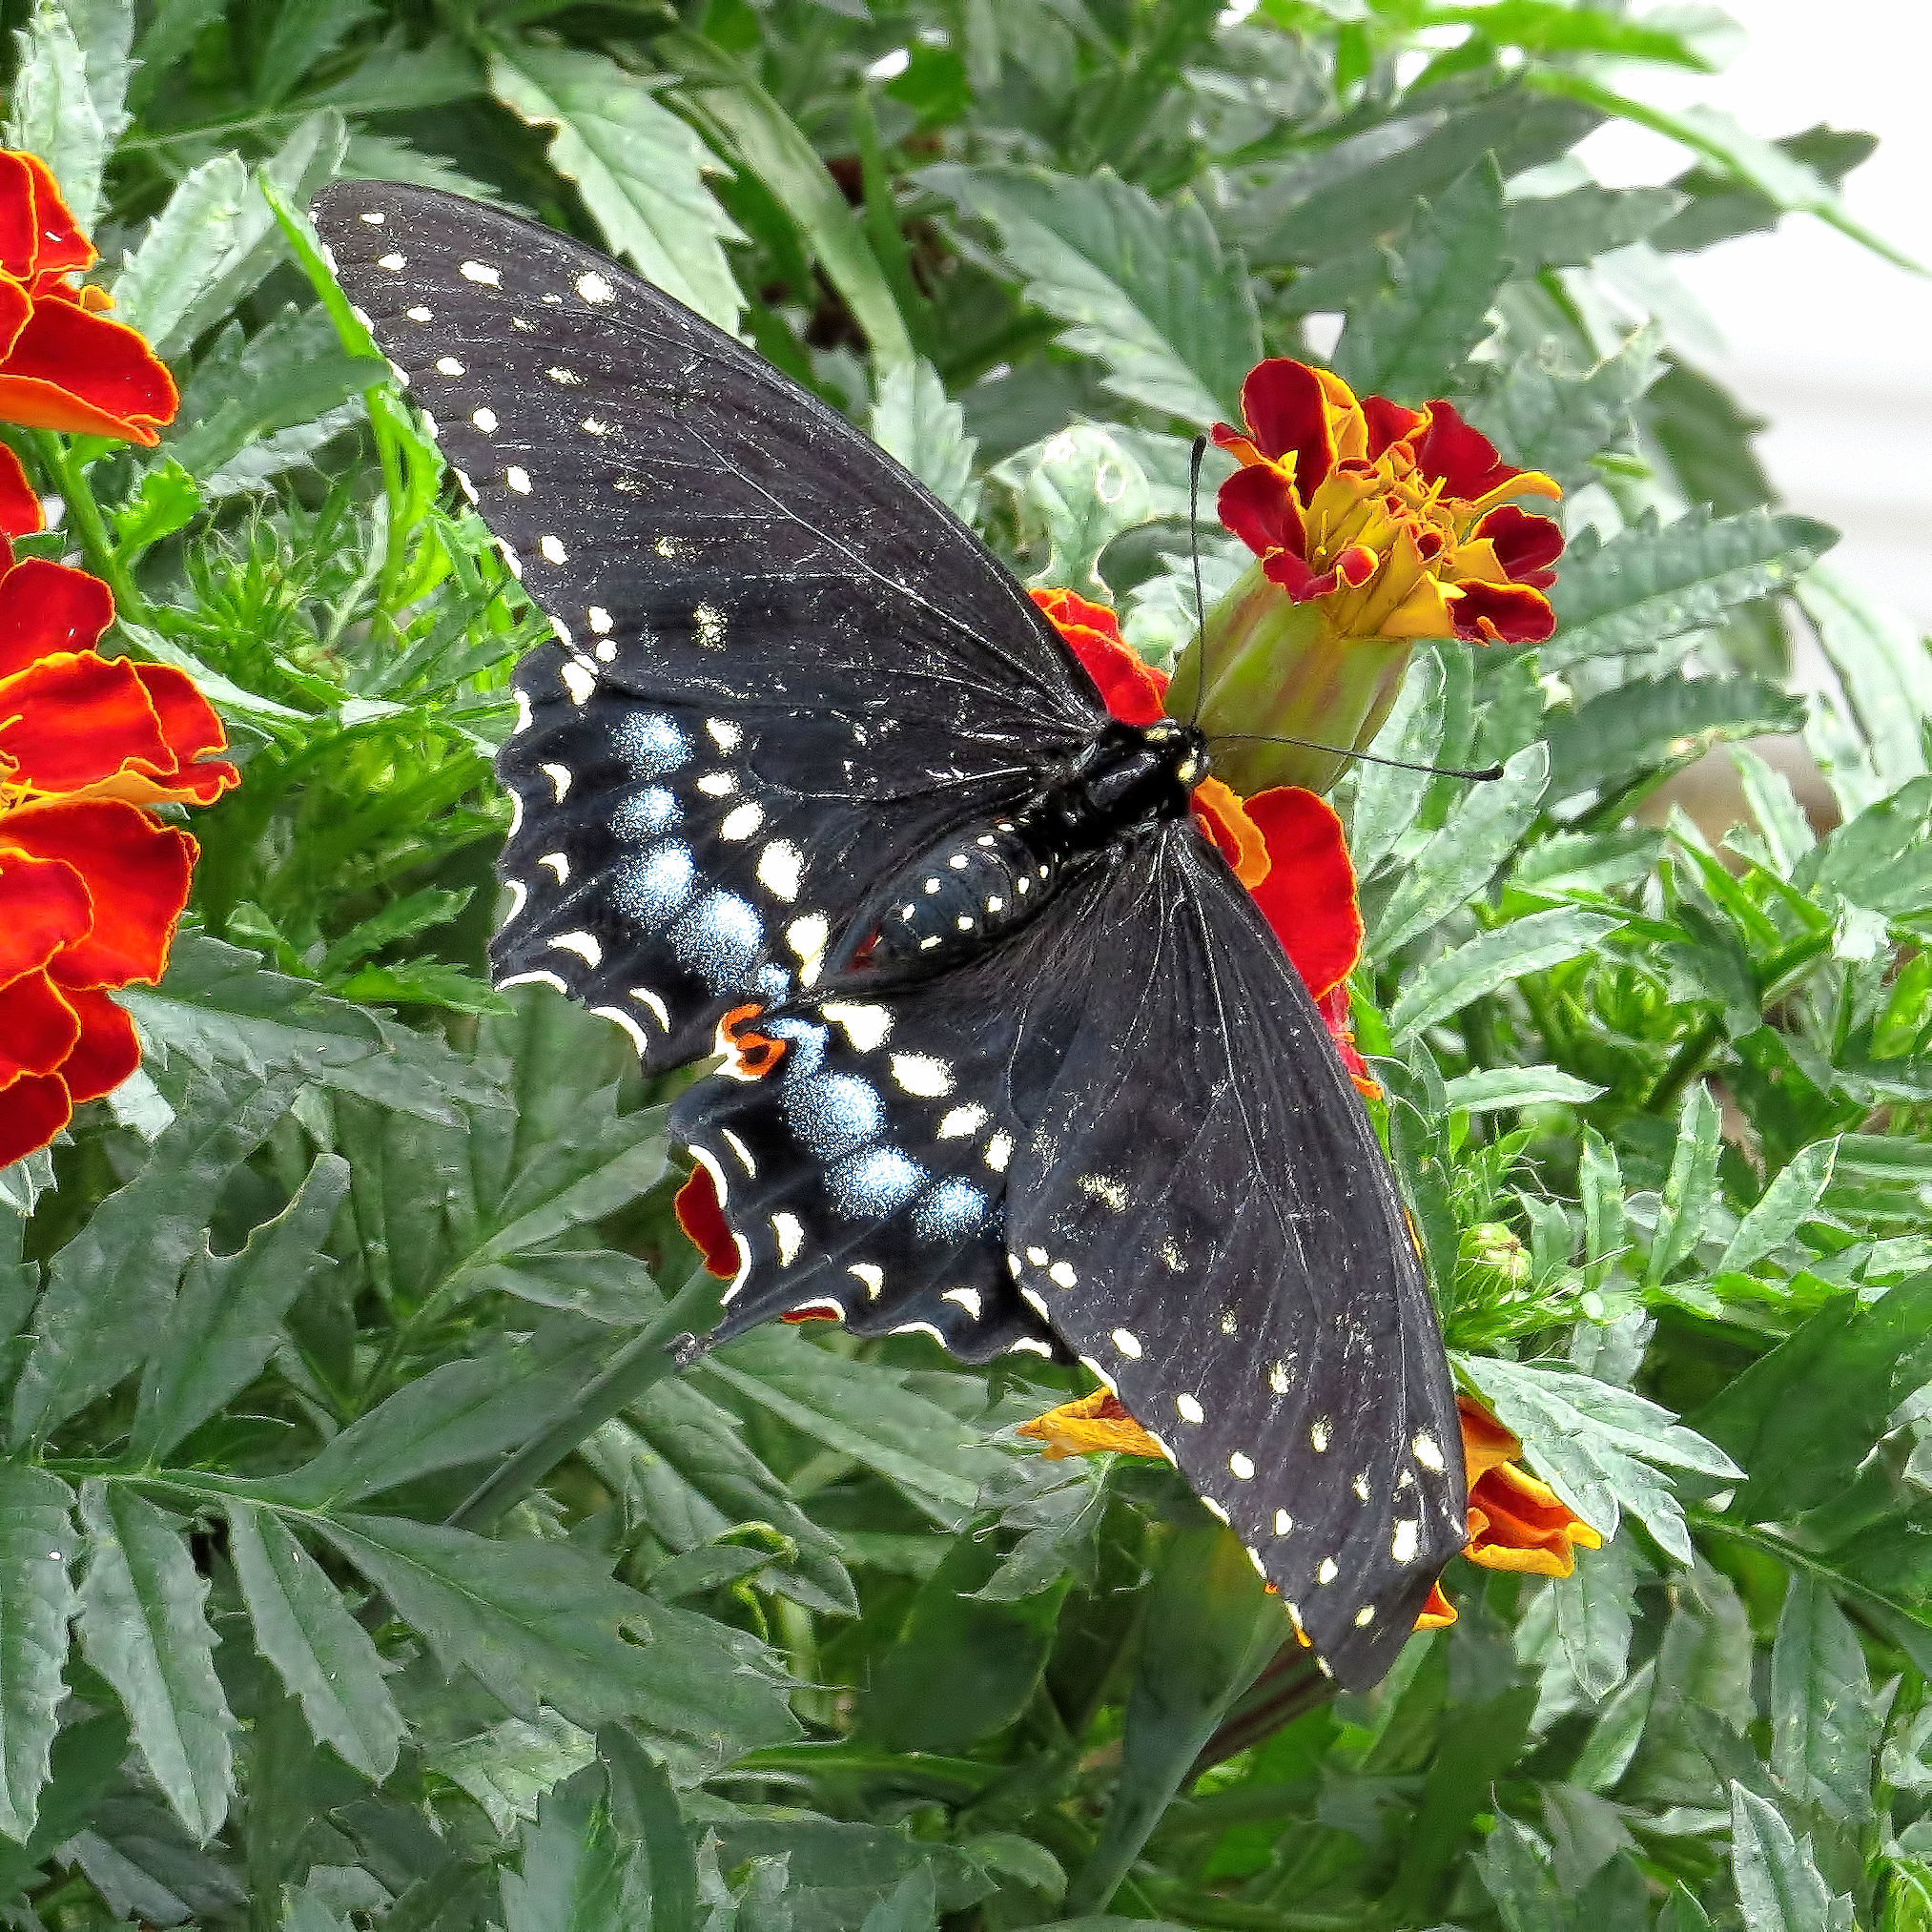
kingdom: Animalia
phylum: Arthropoda
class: Insecta
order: Lepidoptera
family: Papilionidae
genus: Papilio
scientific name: Papilio polyxenes
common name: Black swallowtail
